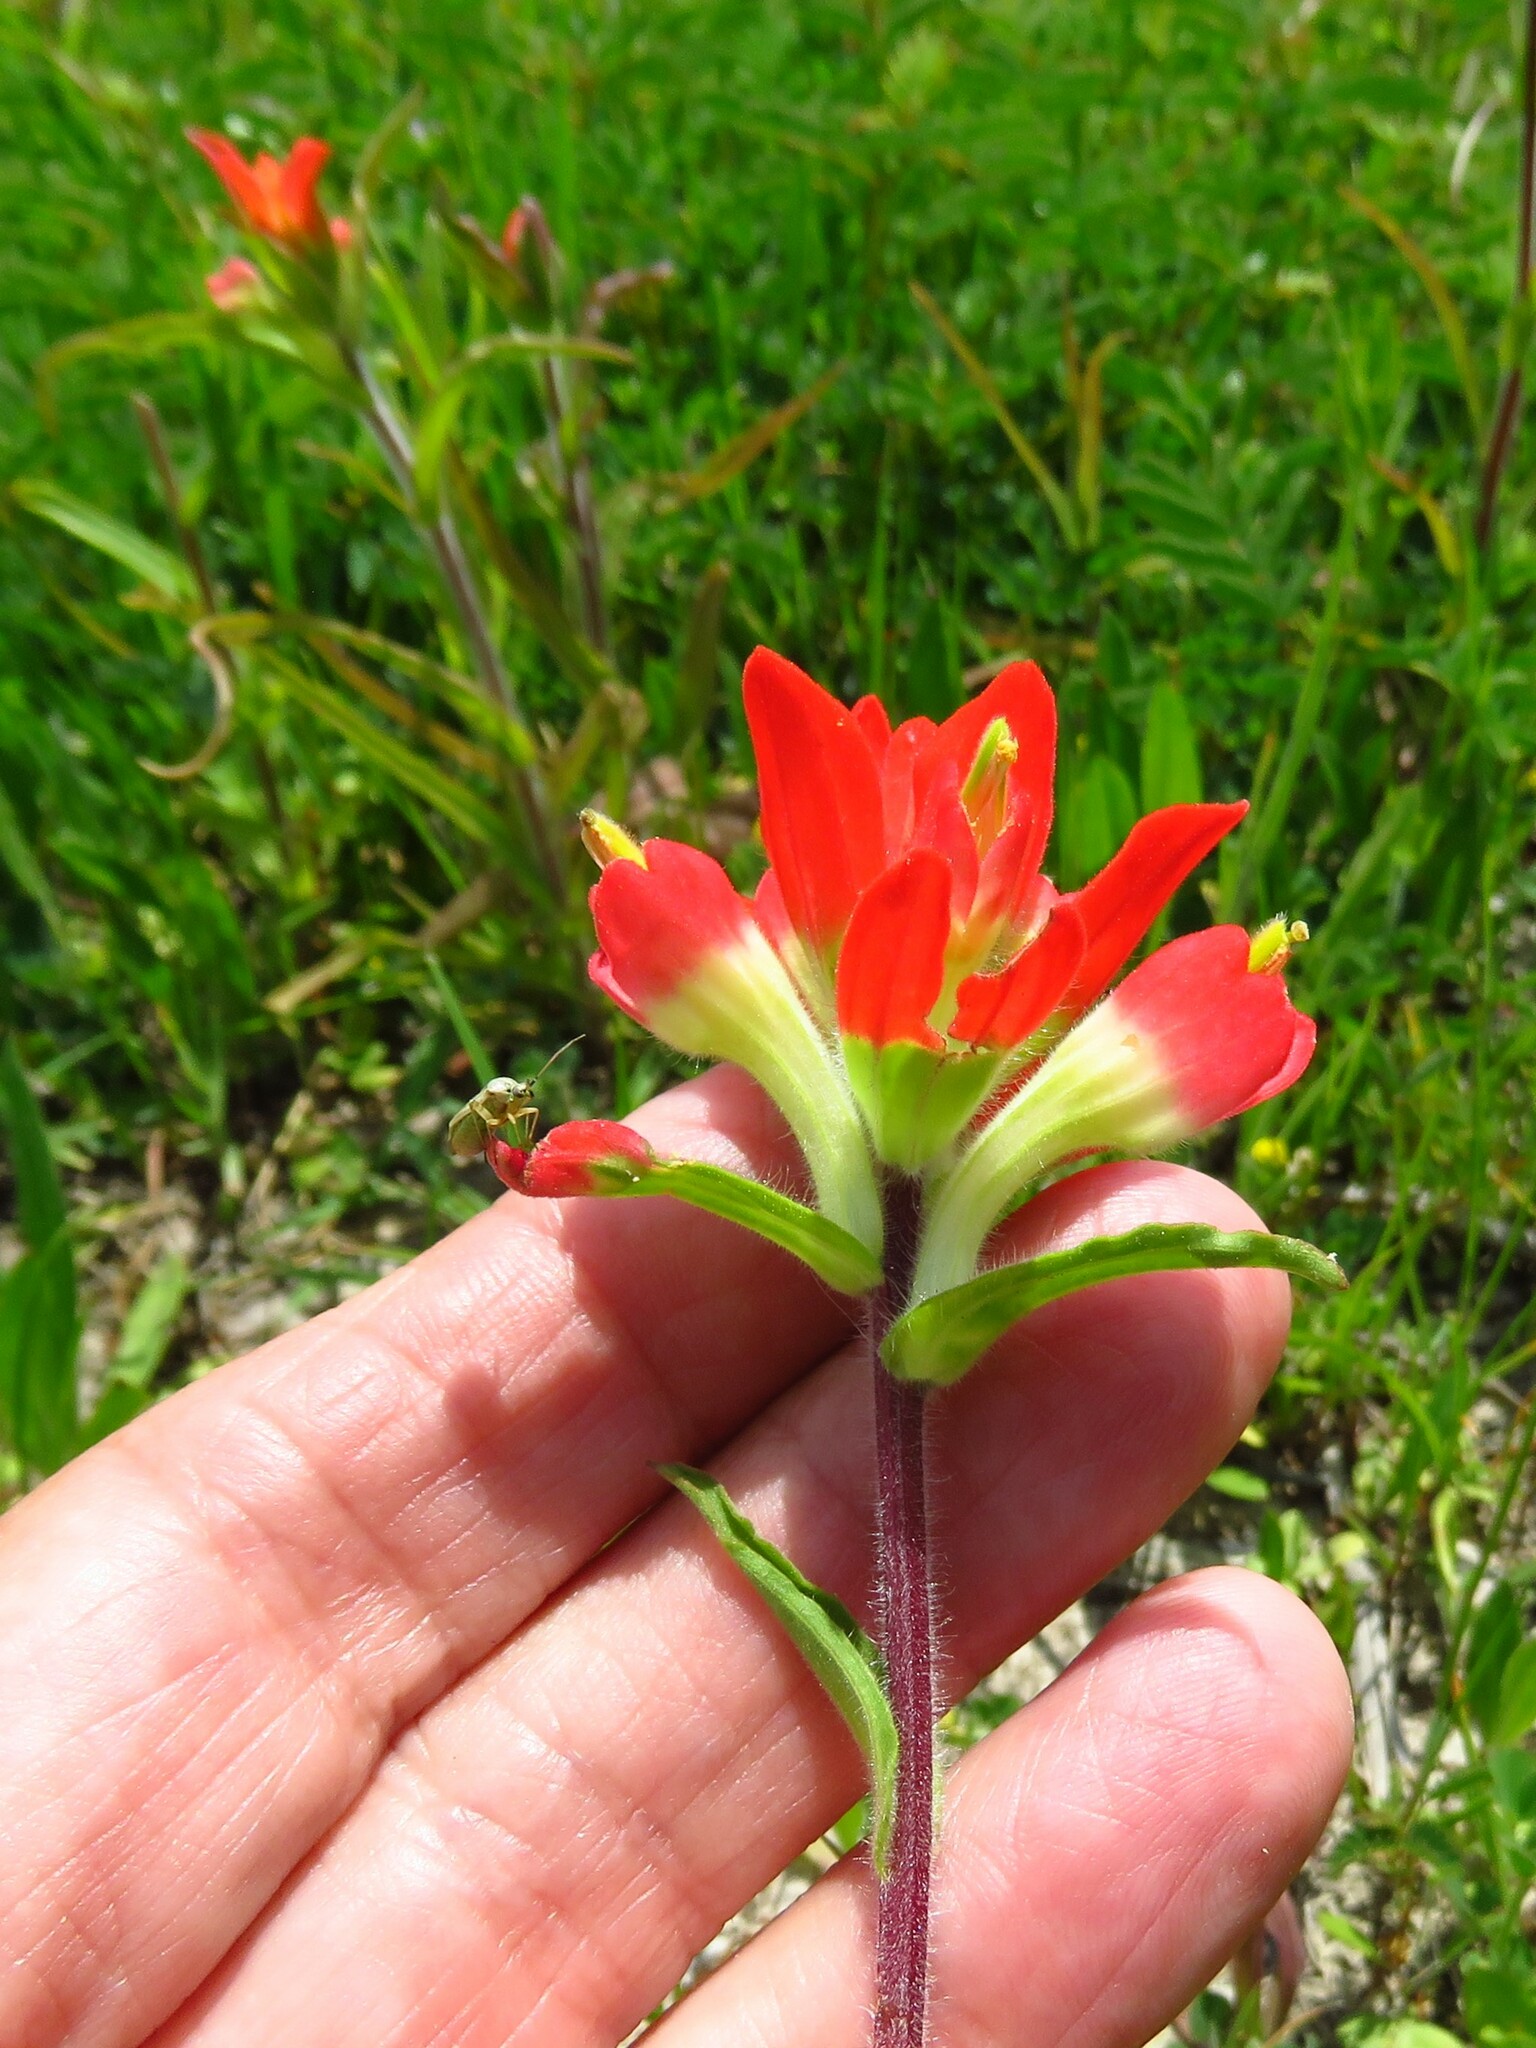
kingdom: Plantae
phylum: Tracheophyta
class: Magnoliopsida
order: Lamiales
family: Orobanchaceae
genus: Castilleja
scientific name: Castilleja indivisa
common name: Texas paintbrush
